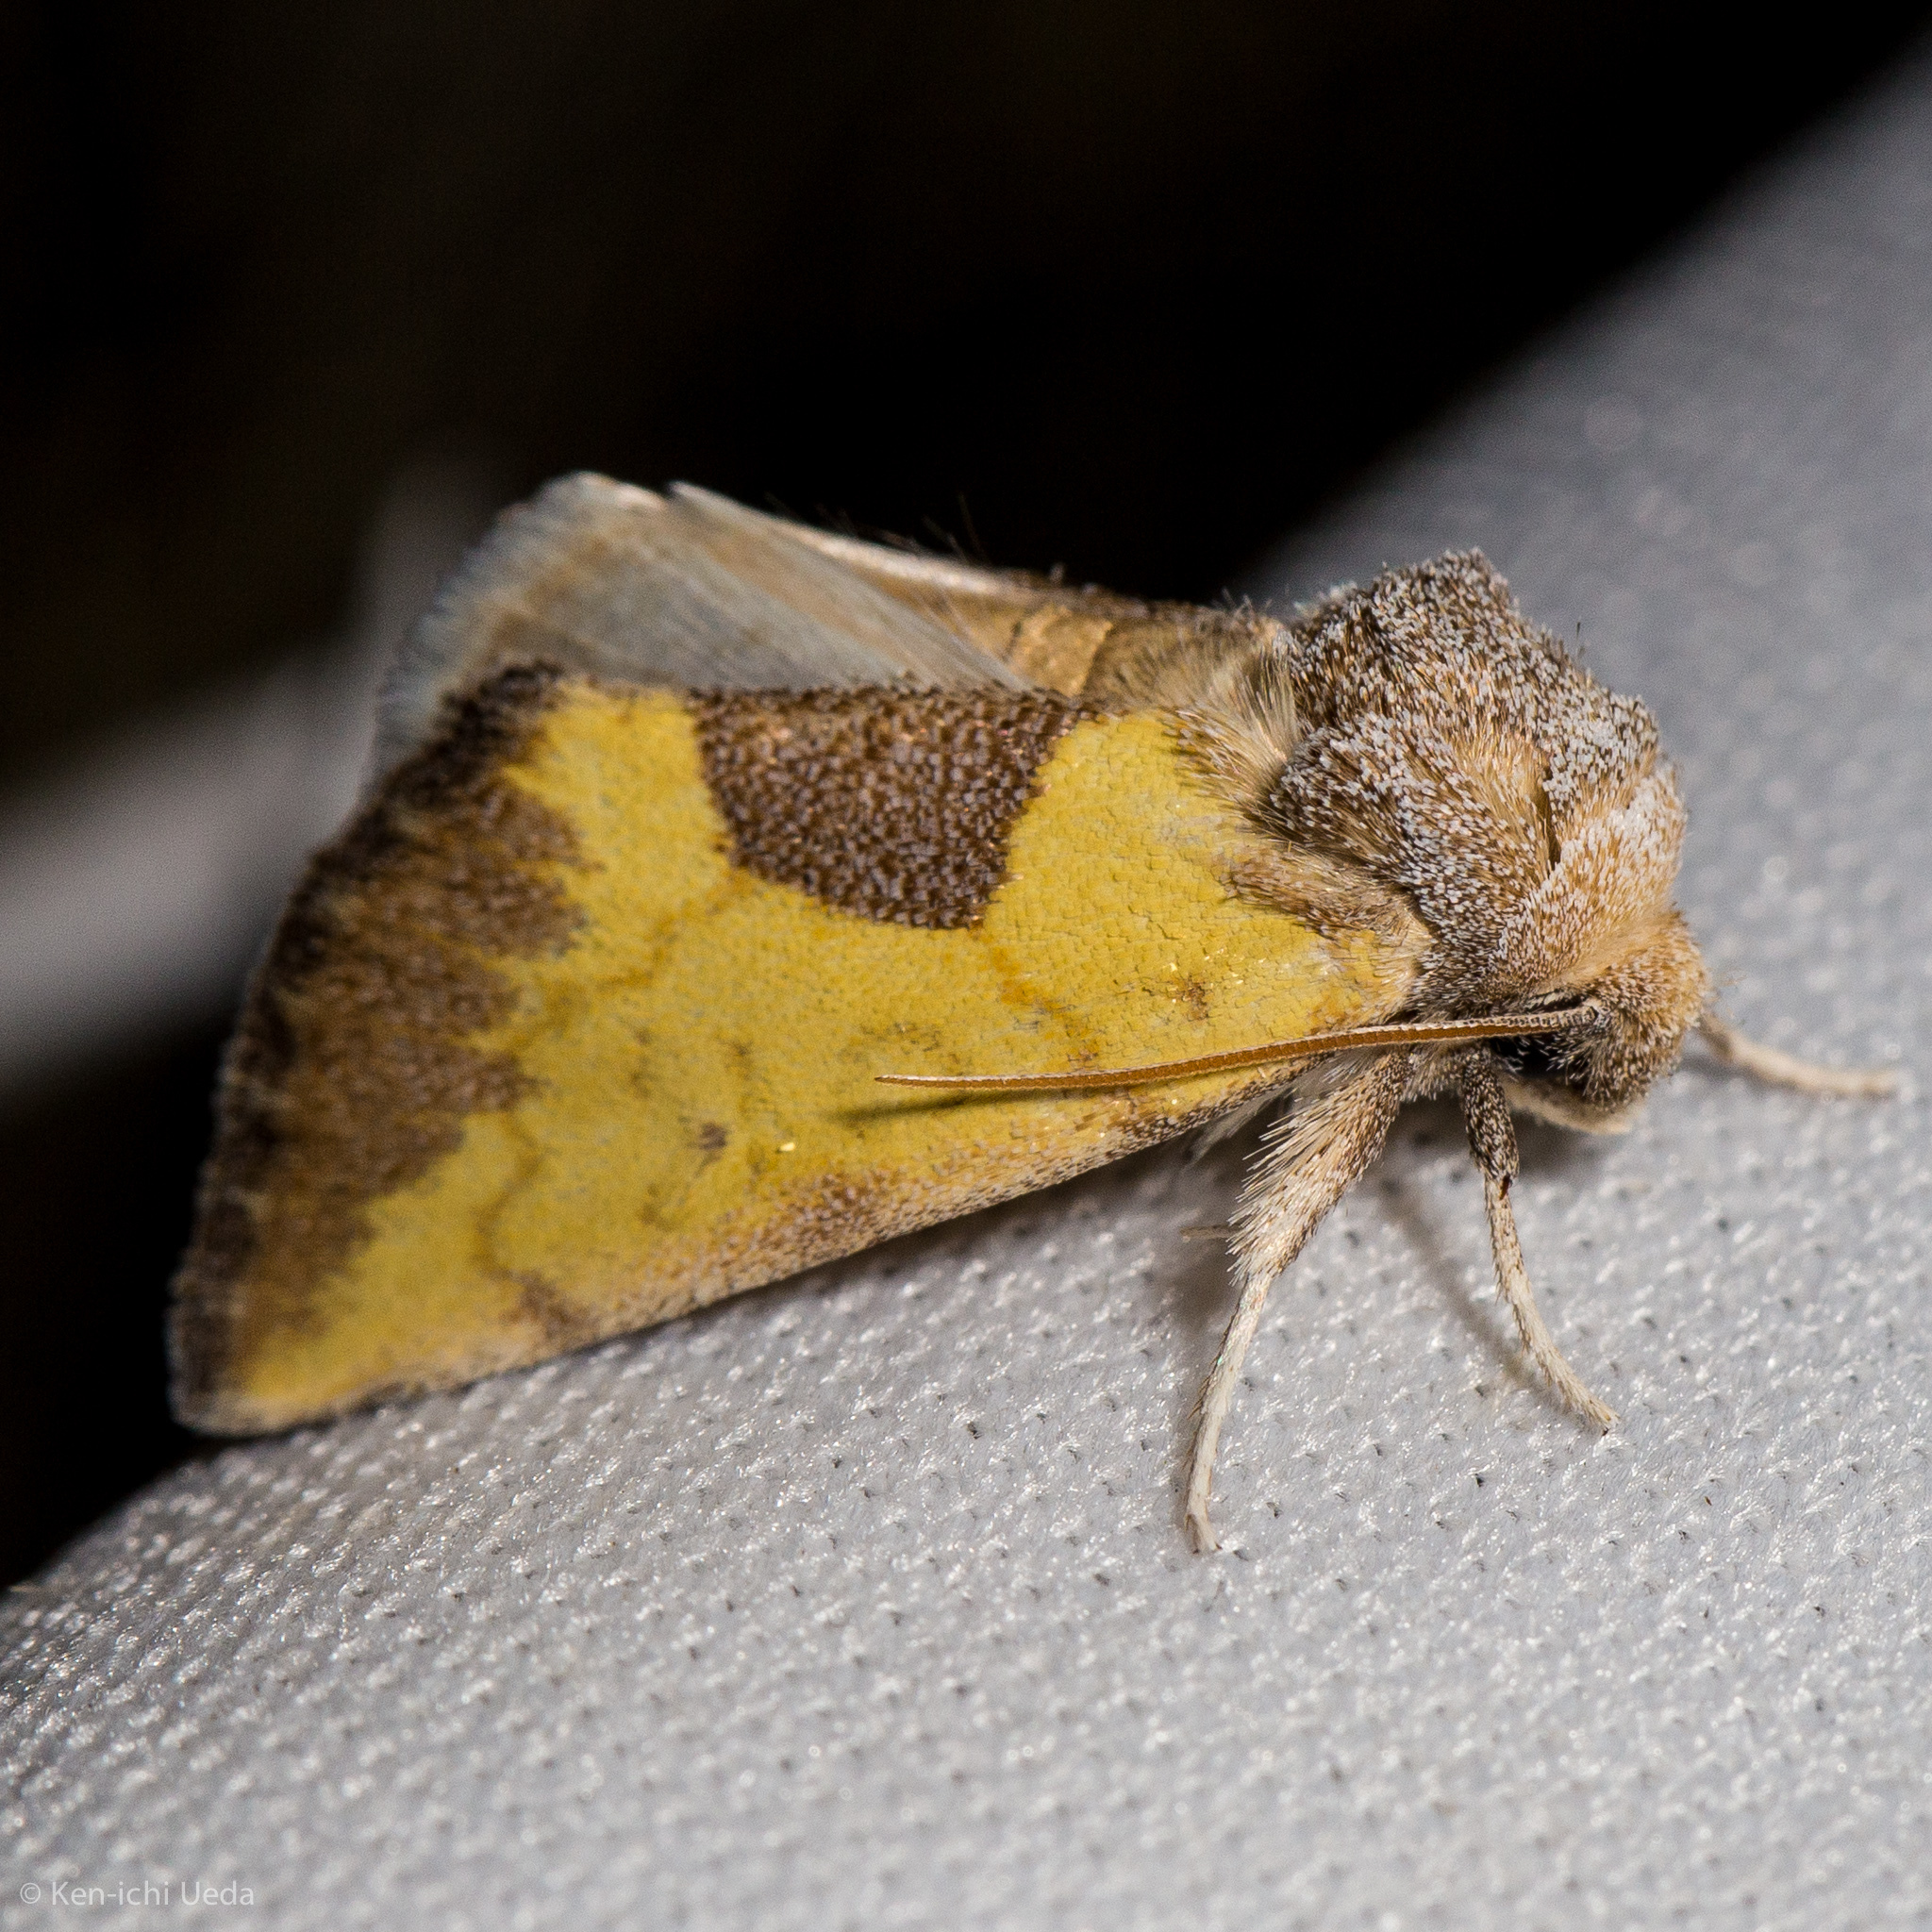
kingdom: Animalia
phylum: Arthropoda
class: Insecta
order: Lepidoptera
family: Noctuidae
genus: Stiria
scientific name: Stiria dyari
